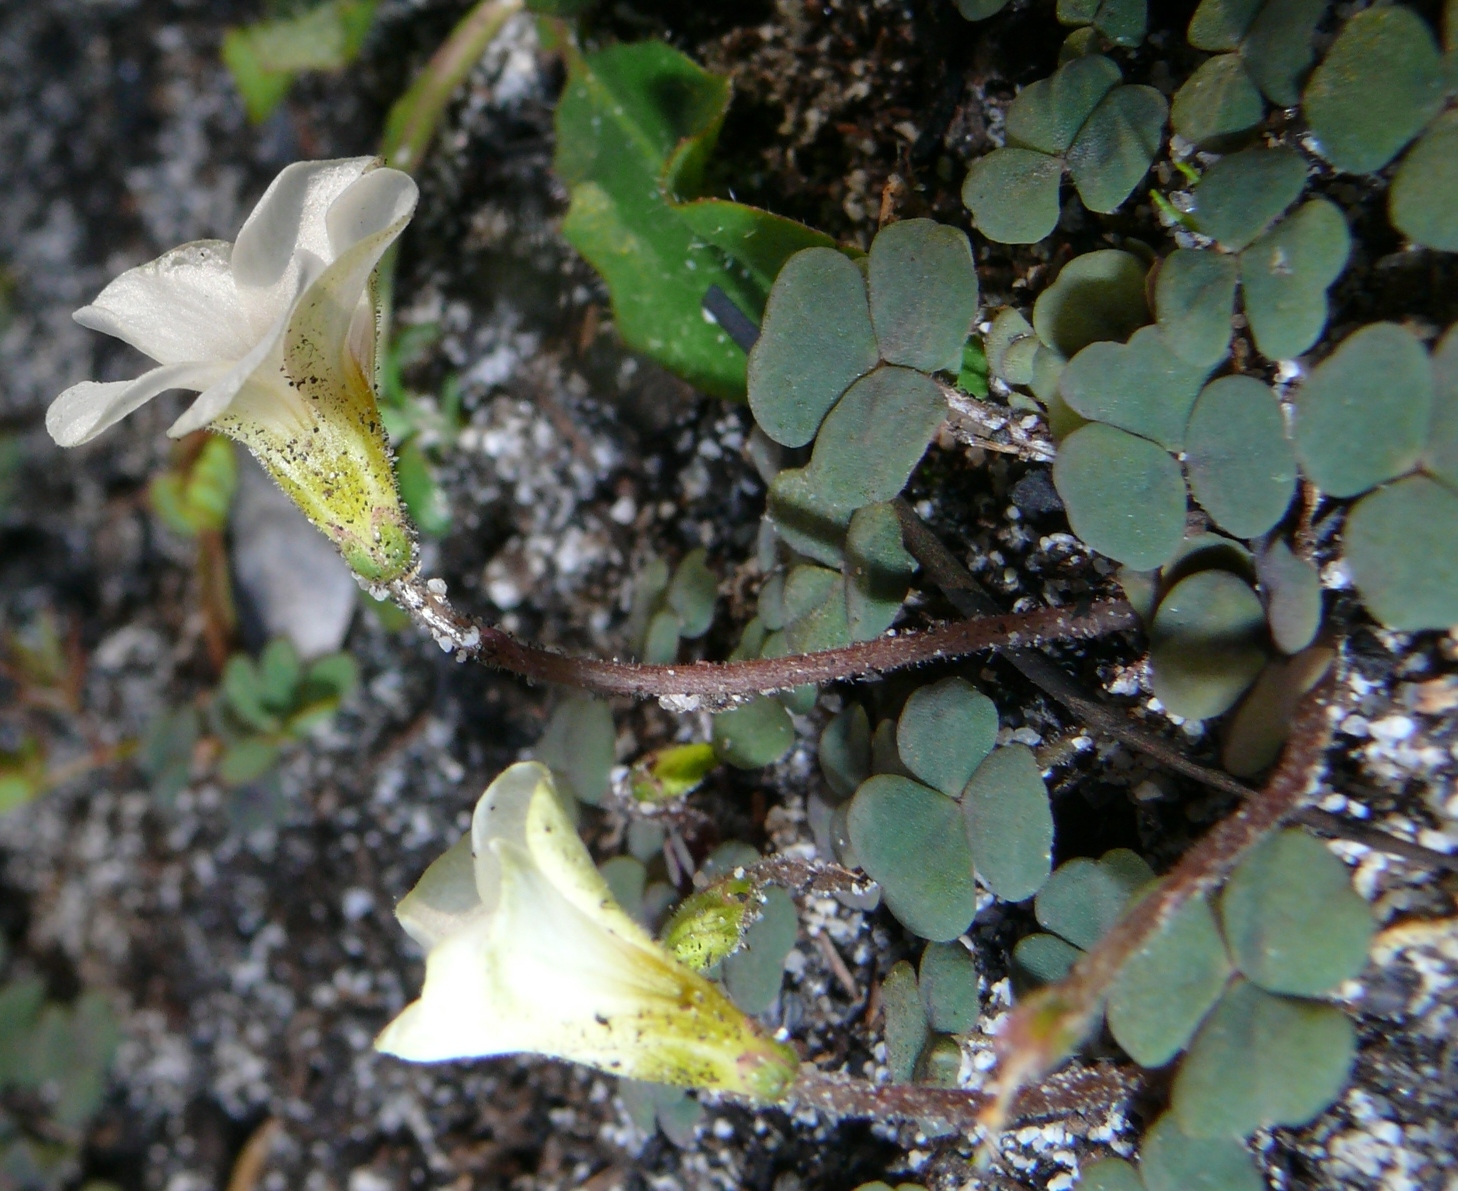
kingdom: Plantae
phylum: Tracheophyta
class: Magnoliopsida
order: Oxalidales
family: Oxalidaceae
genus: Oxalis
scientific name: Oxalis punctata
